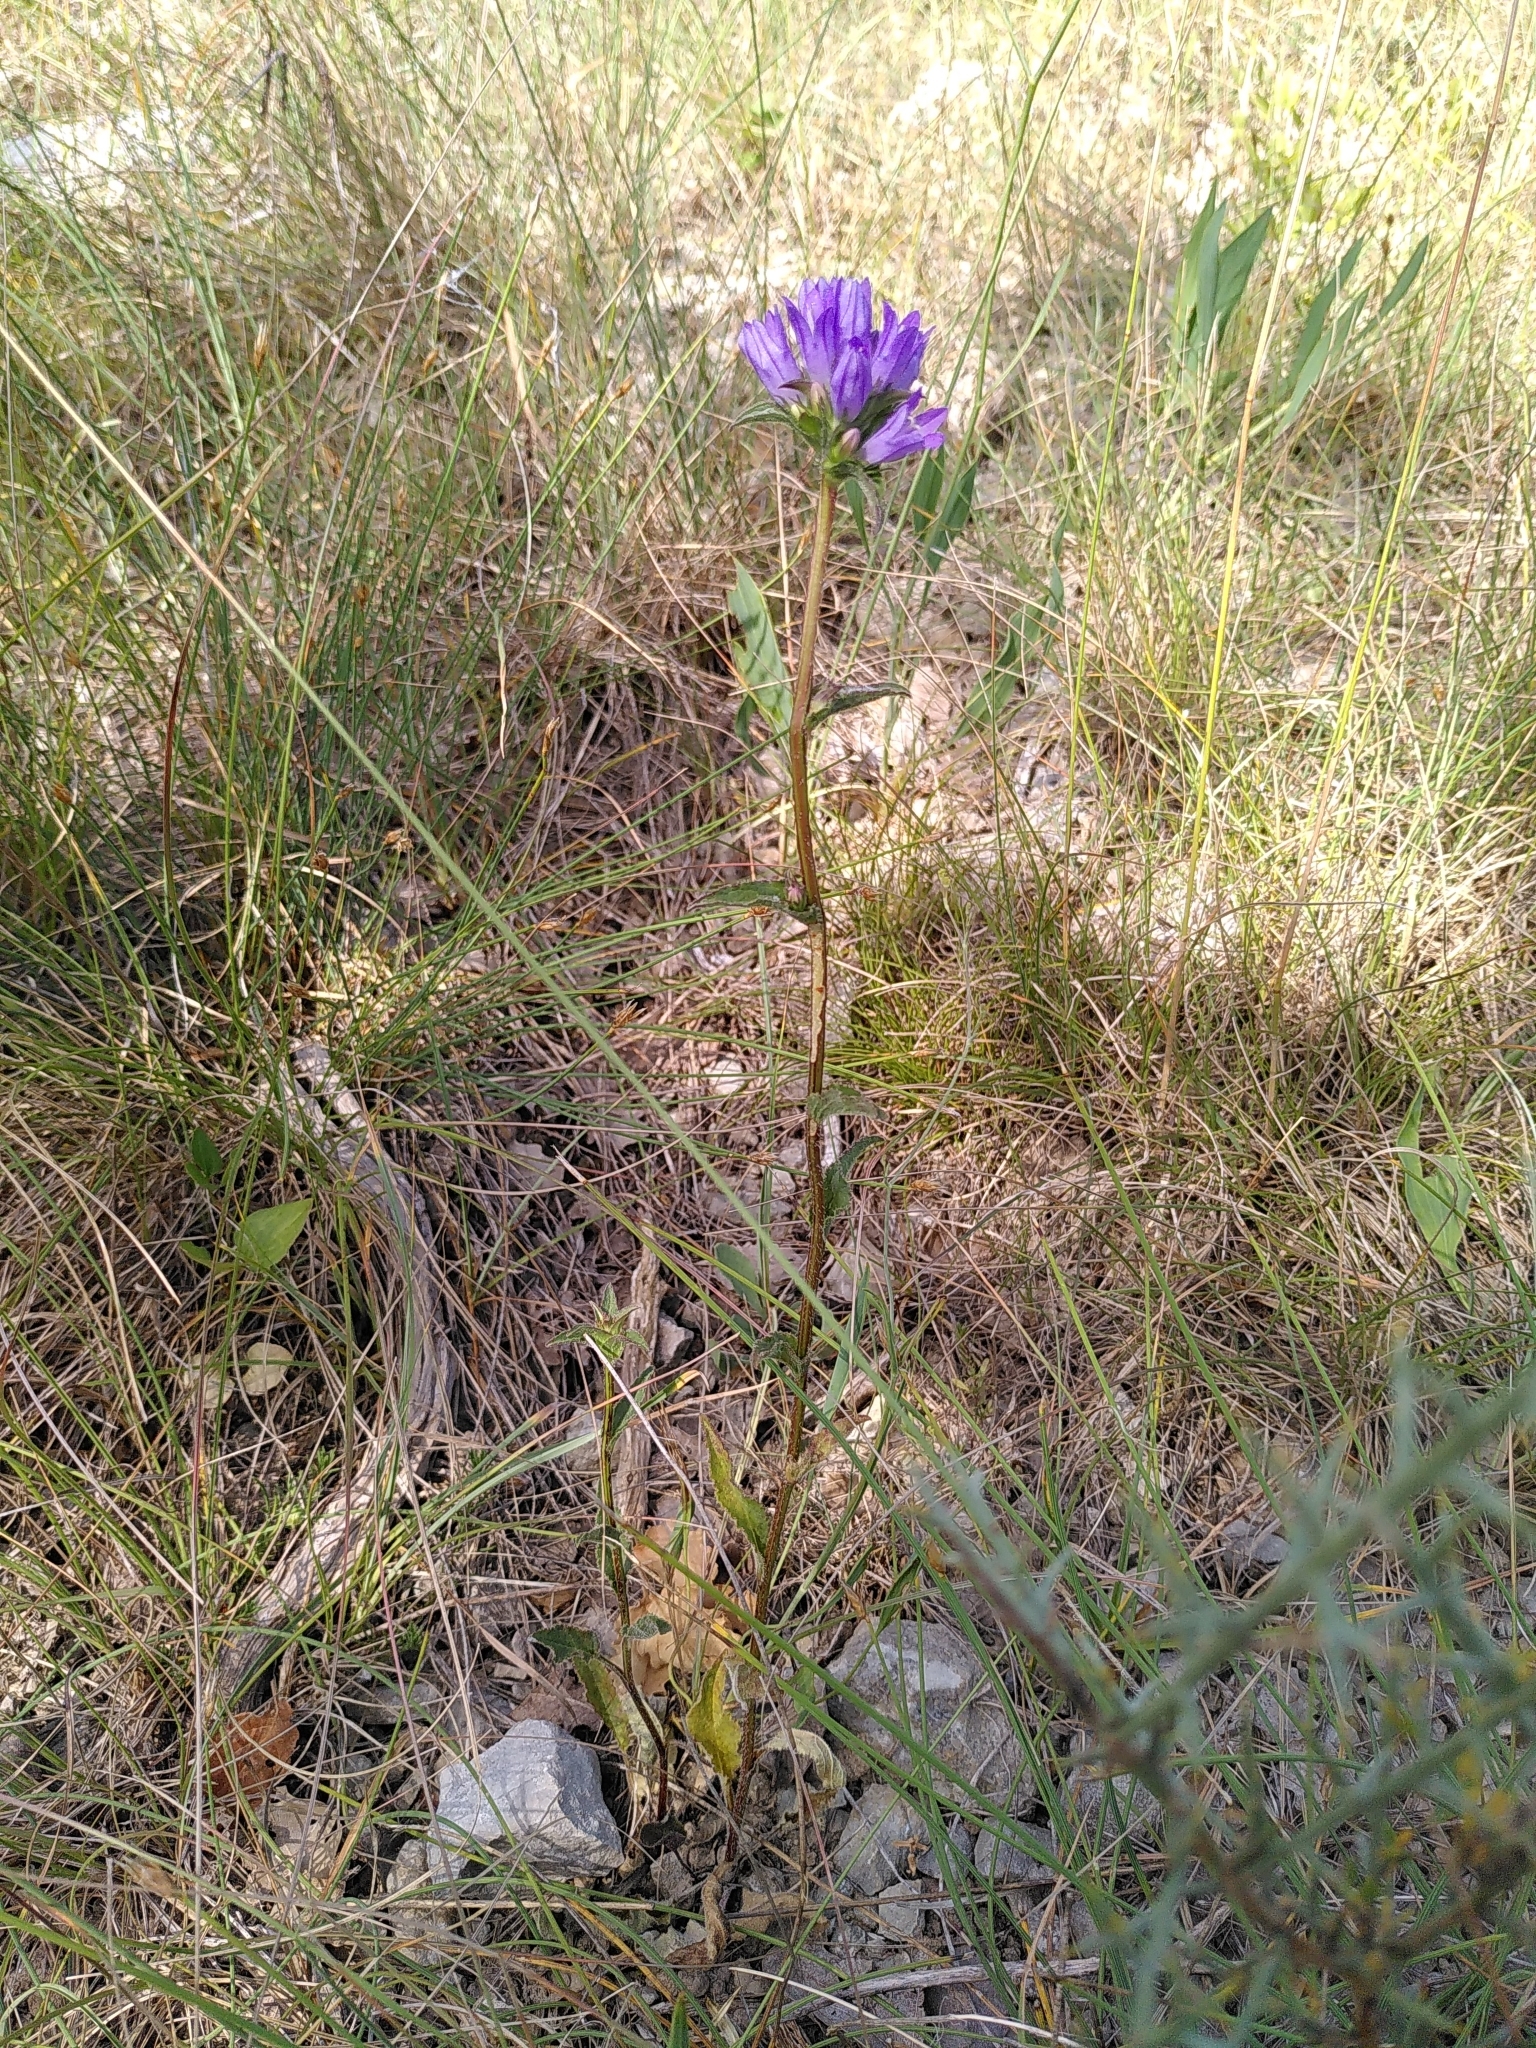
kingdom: Plantae
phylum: Tracheophyta
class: Magnoliopsida
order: Asterales
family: Campanulaceae
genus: Campanula
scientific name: Campanula glomerata
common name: Clustered bellflower
